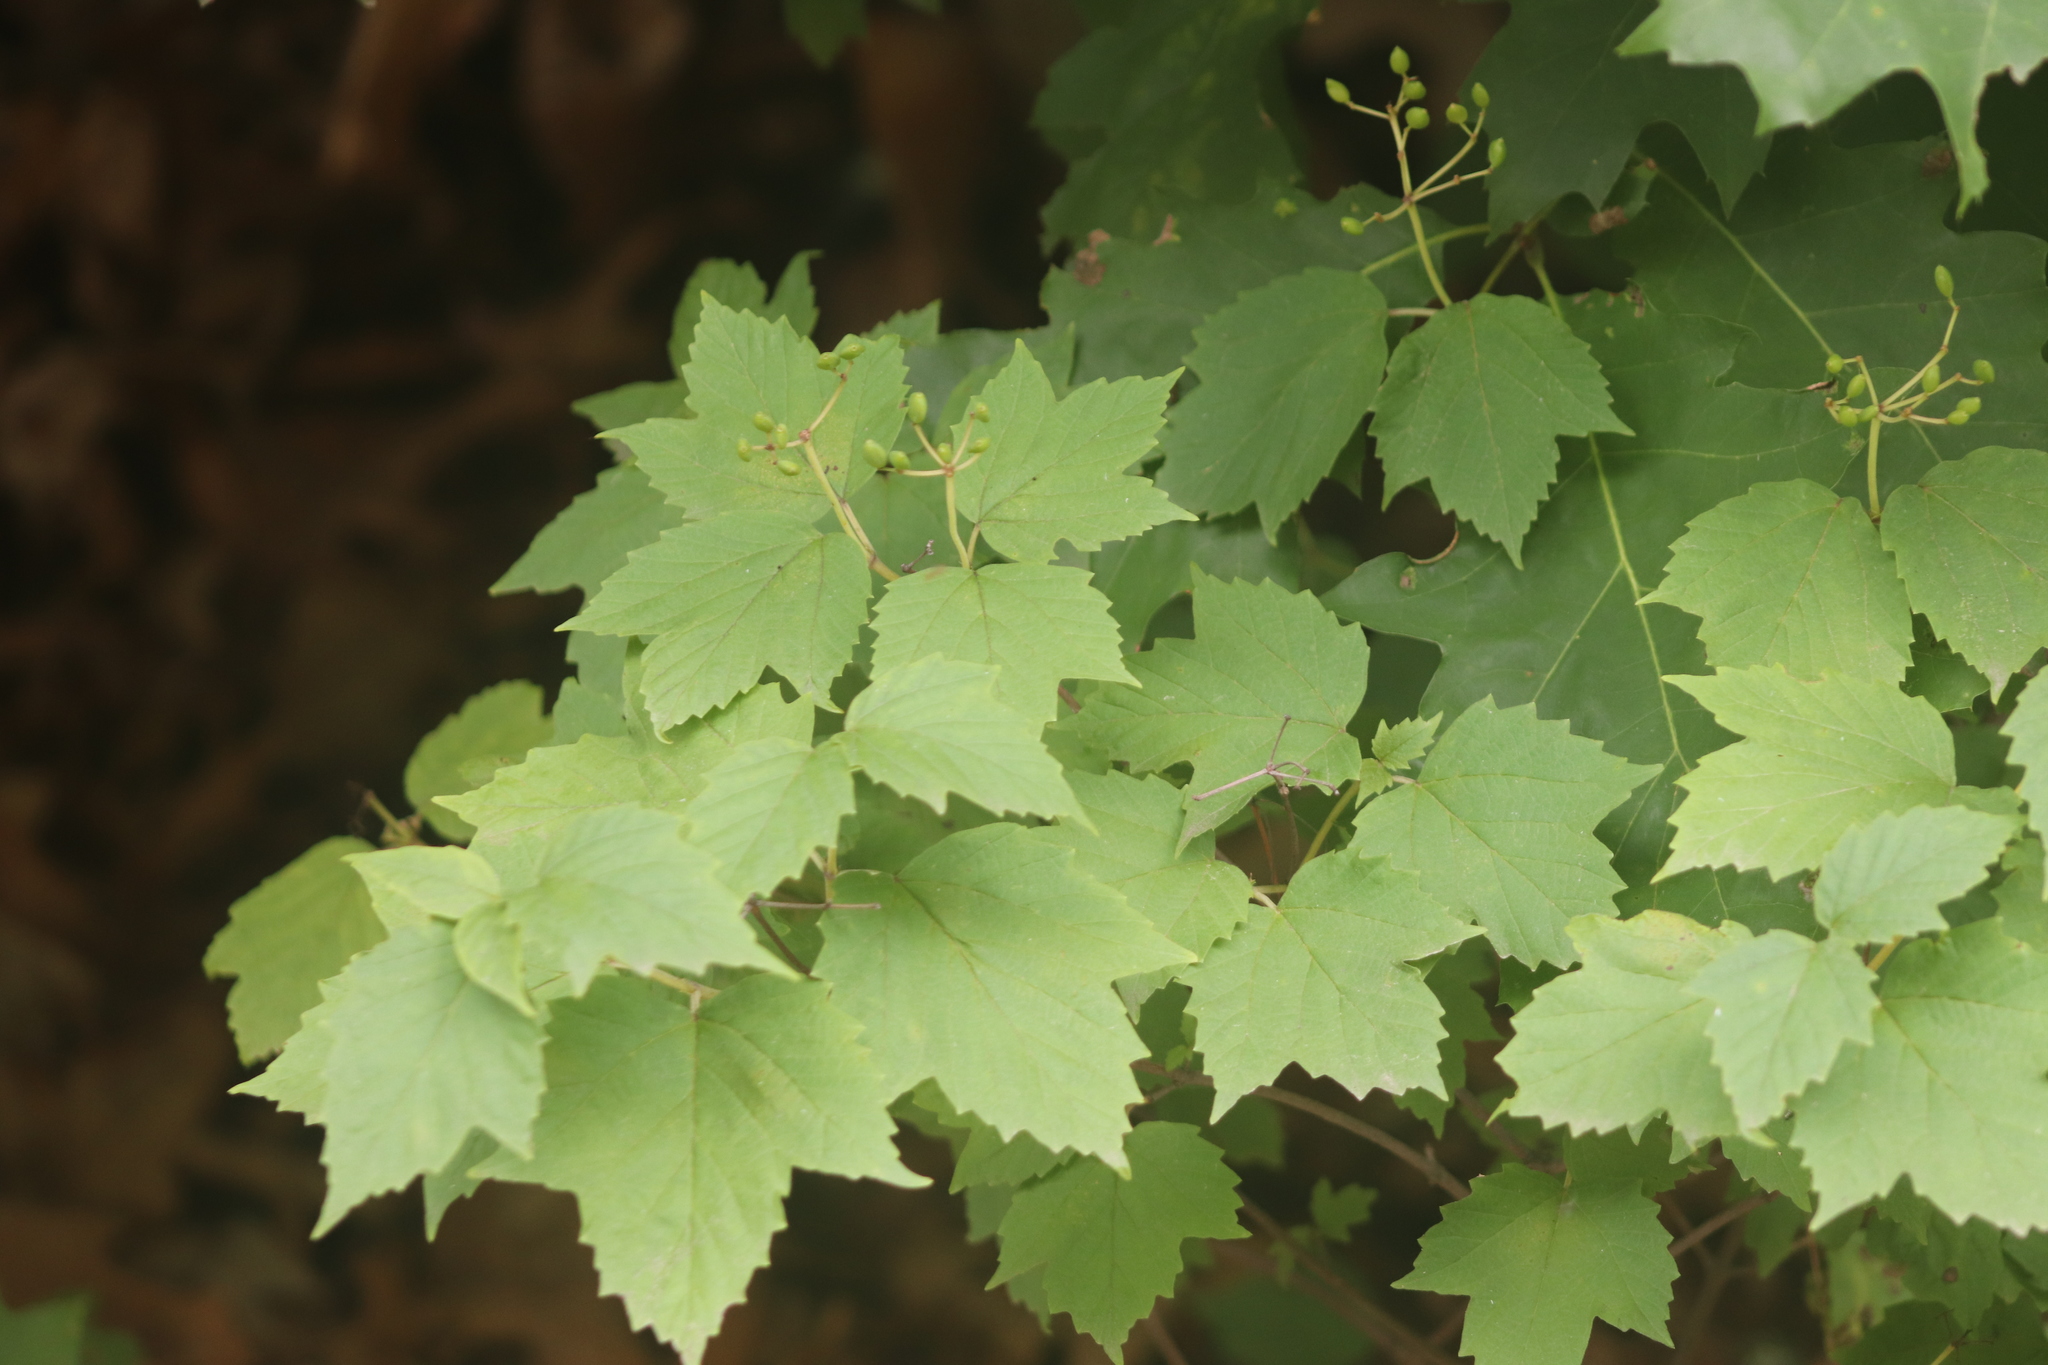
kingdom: Plantae
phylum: Tracheophyta
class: Magnoliopsida
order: Dipsacales
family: Viburnaceae
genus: Viburnum
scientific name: Viburnum acerifolium
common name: Dockmackie
